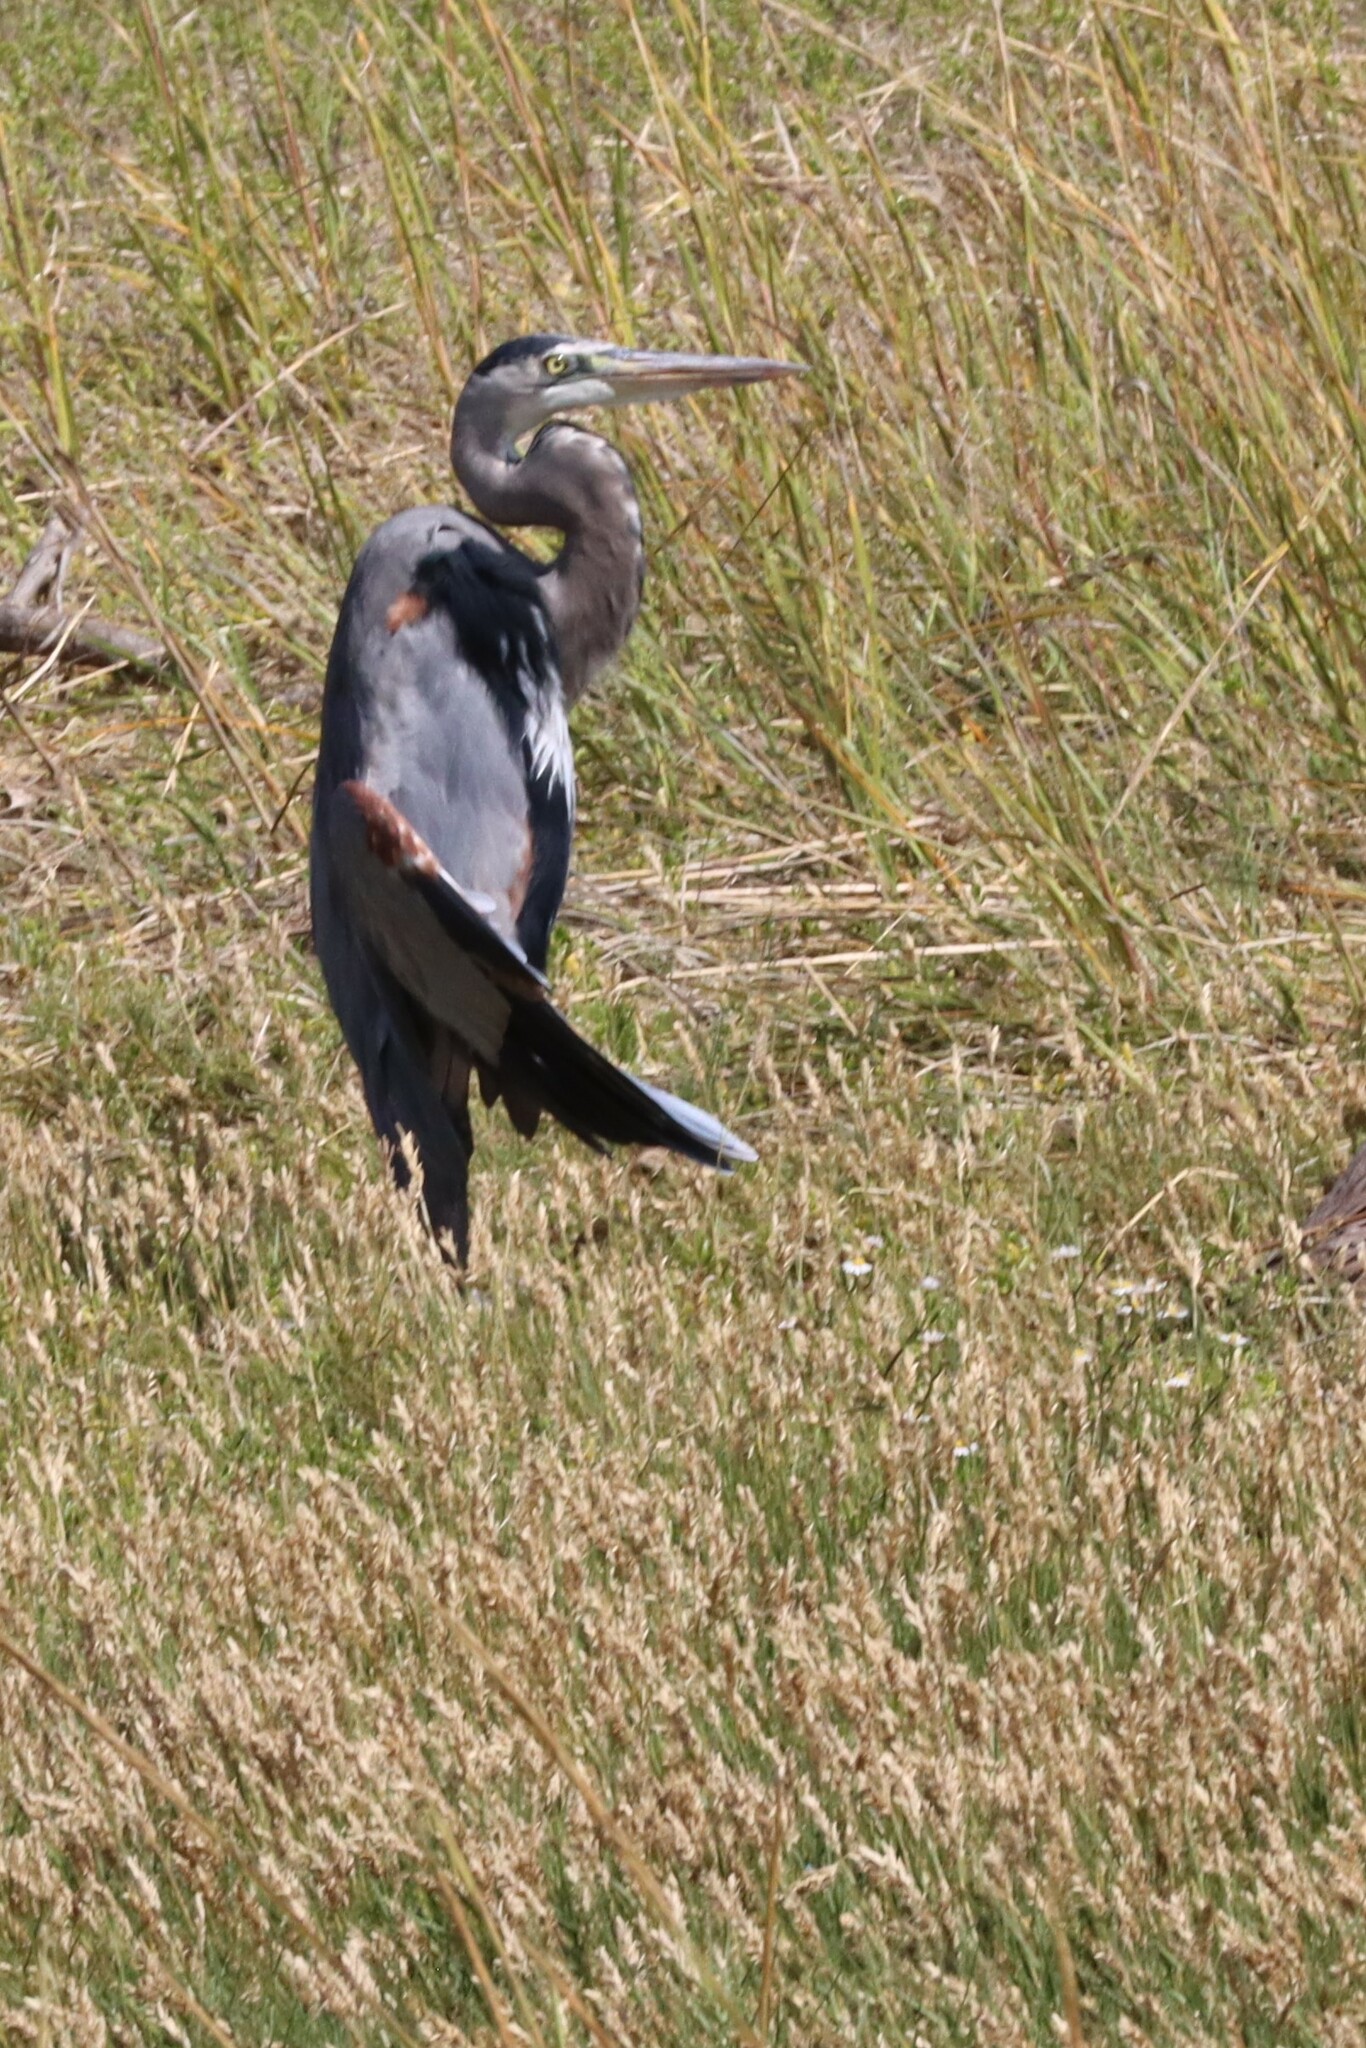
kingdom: Animalia
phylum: Chordata
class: Aves
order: Pelecaniformes
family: Ardeidae
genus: Ardea
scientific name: Ardea herodias
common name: Great blue heron
